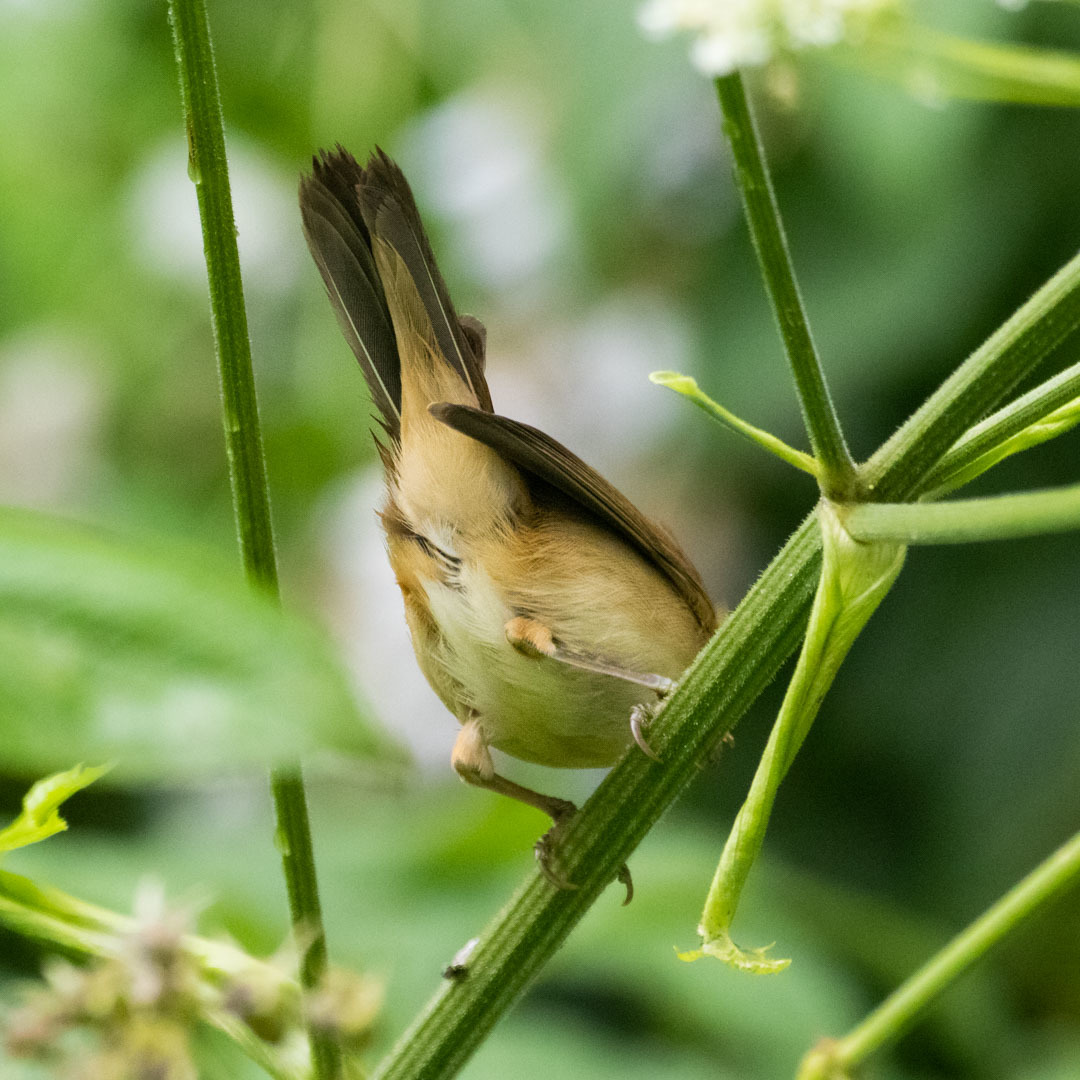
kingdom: Animalia
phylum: Chordata
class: Aves
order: Passeriformes
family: Acrocephalidae
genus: Acrocephalus
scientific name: Acrocephalus palustris
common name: Marsh warbler
